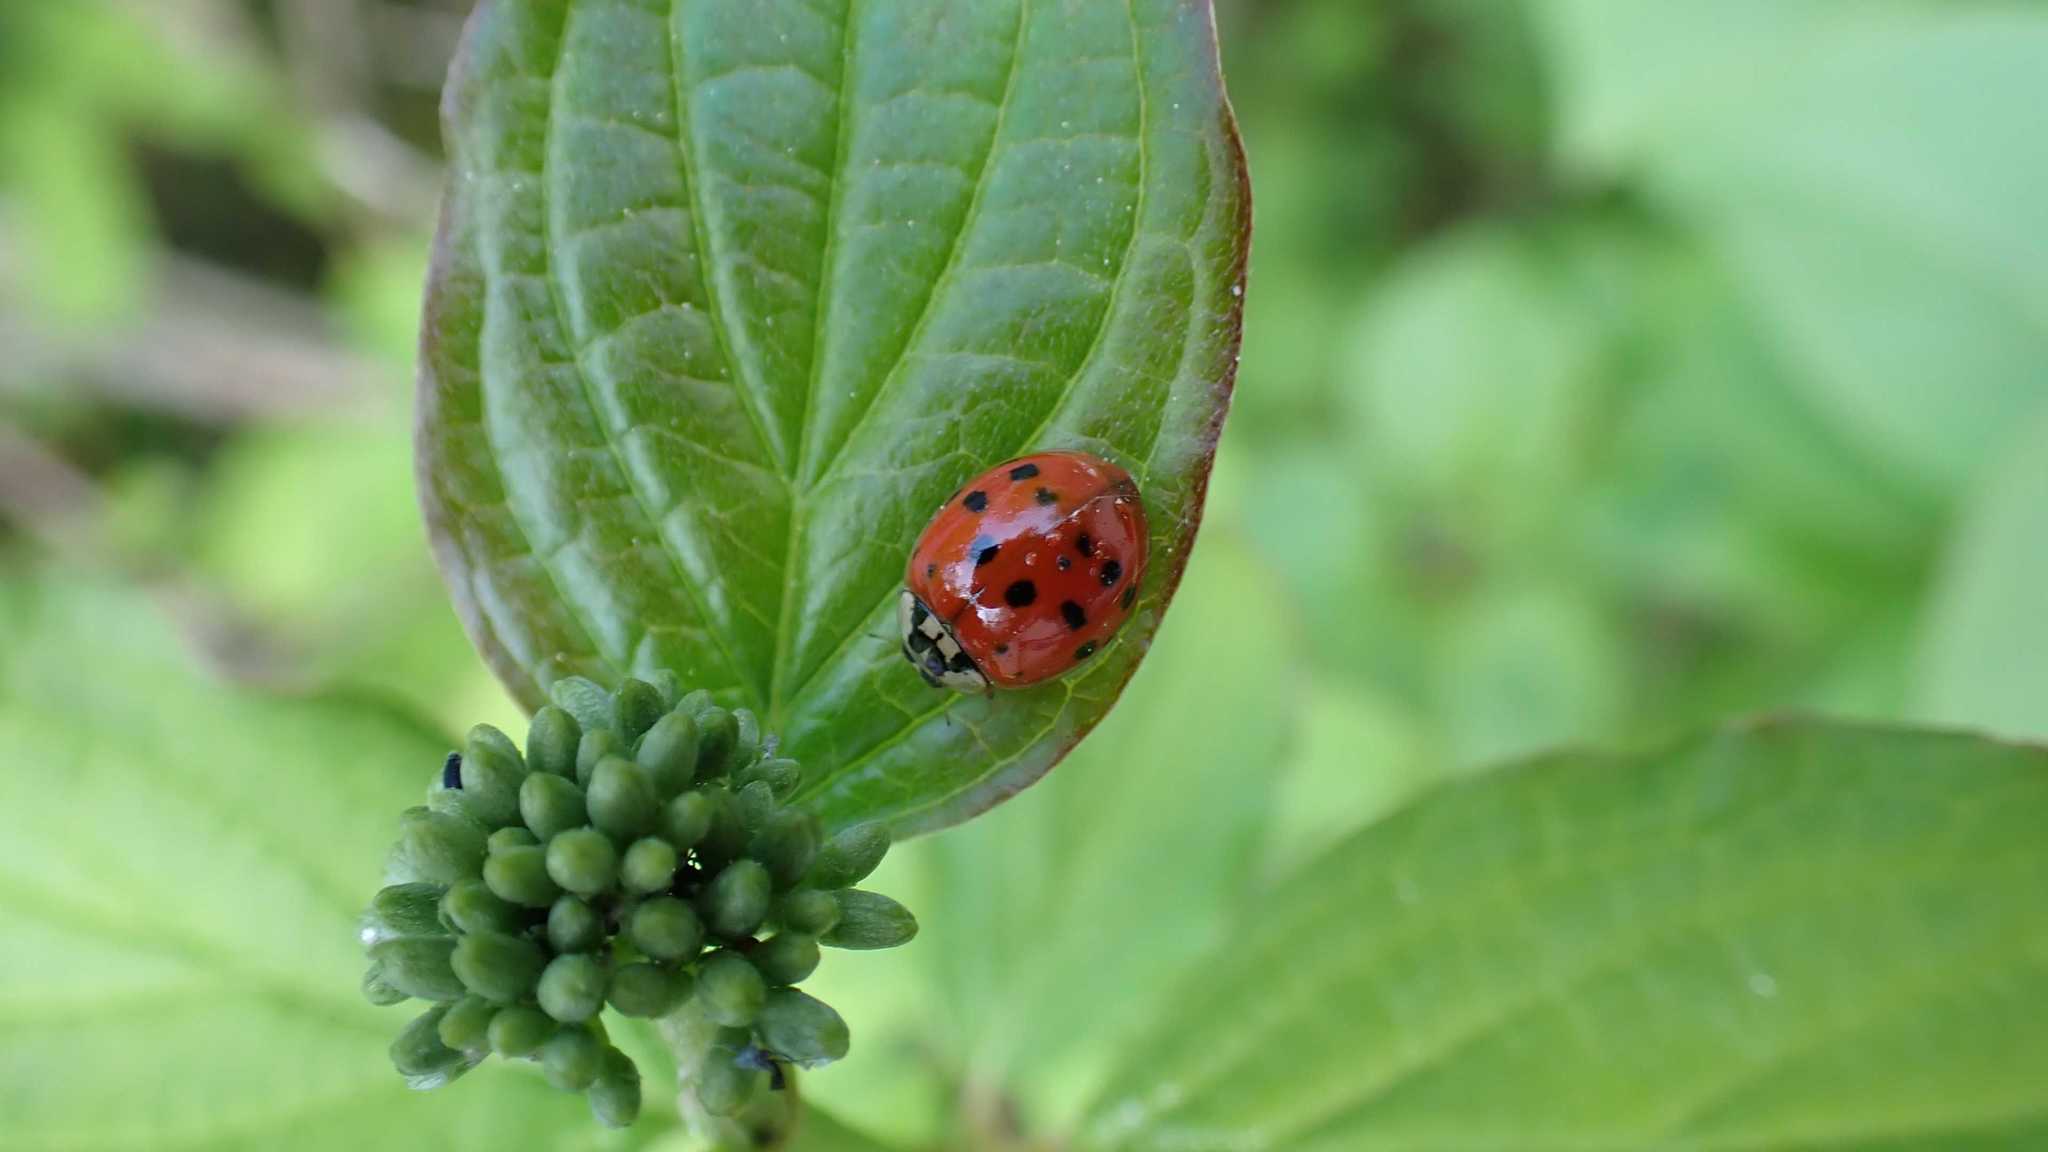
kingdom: Animalia
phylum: Arthropoda
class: Insecta
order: Coleoptera
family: Coccinellidae
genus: Harmonia
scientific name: Harmonia axyridis
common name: Harlequin ladybird
